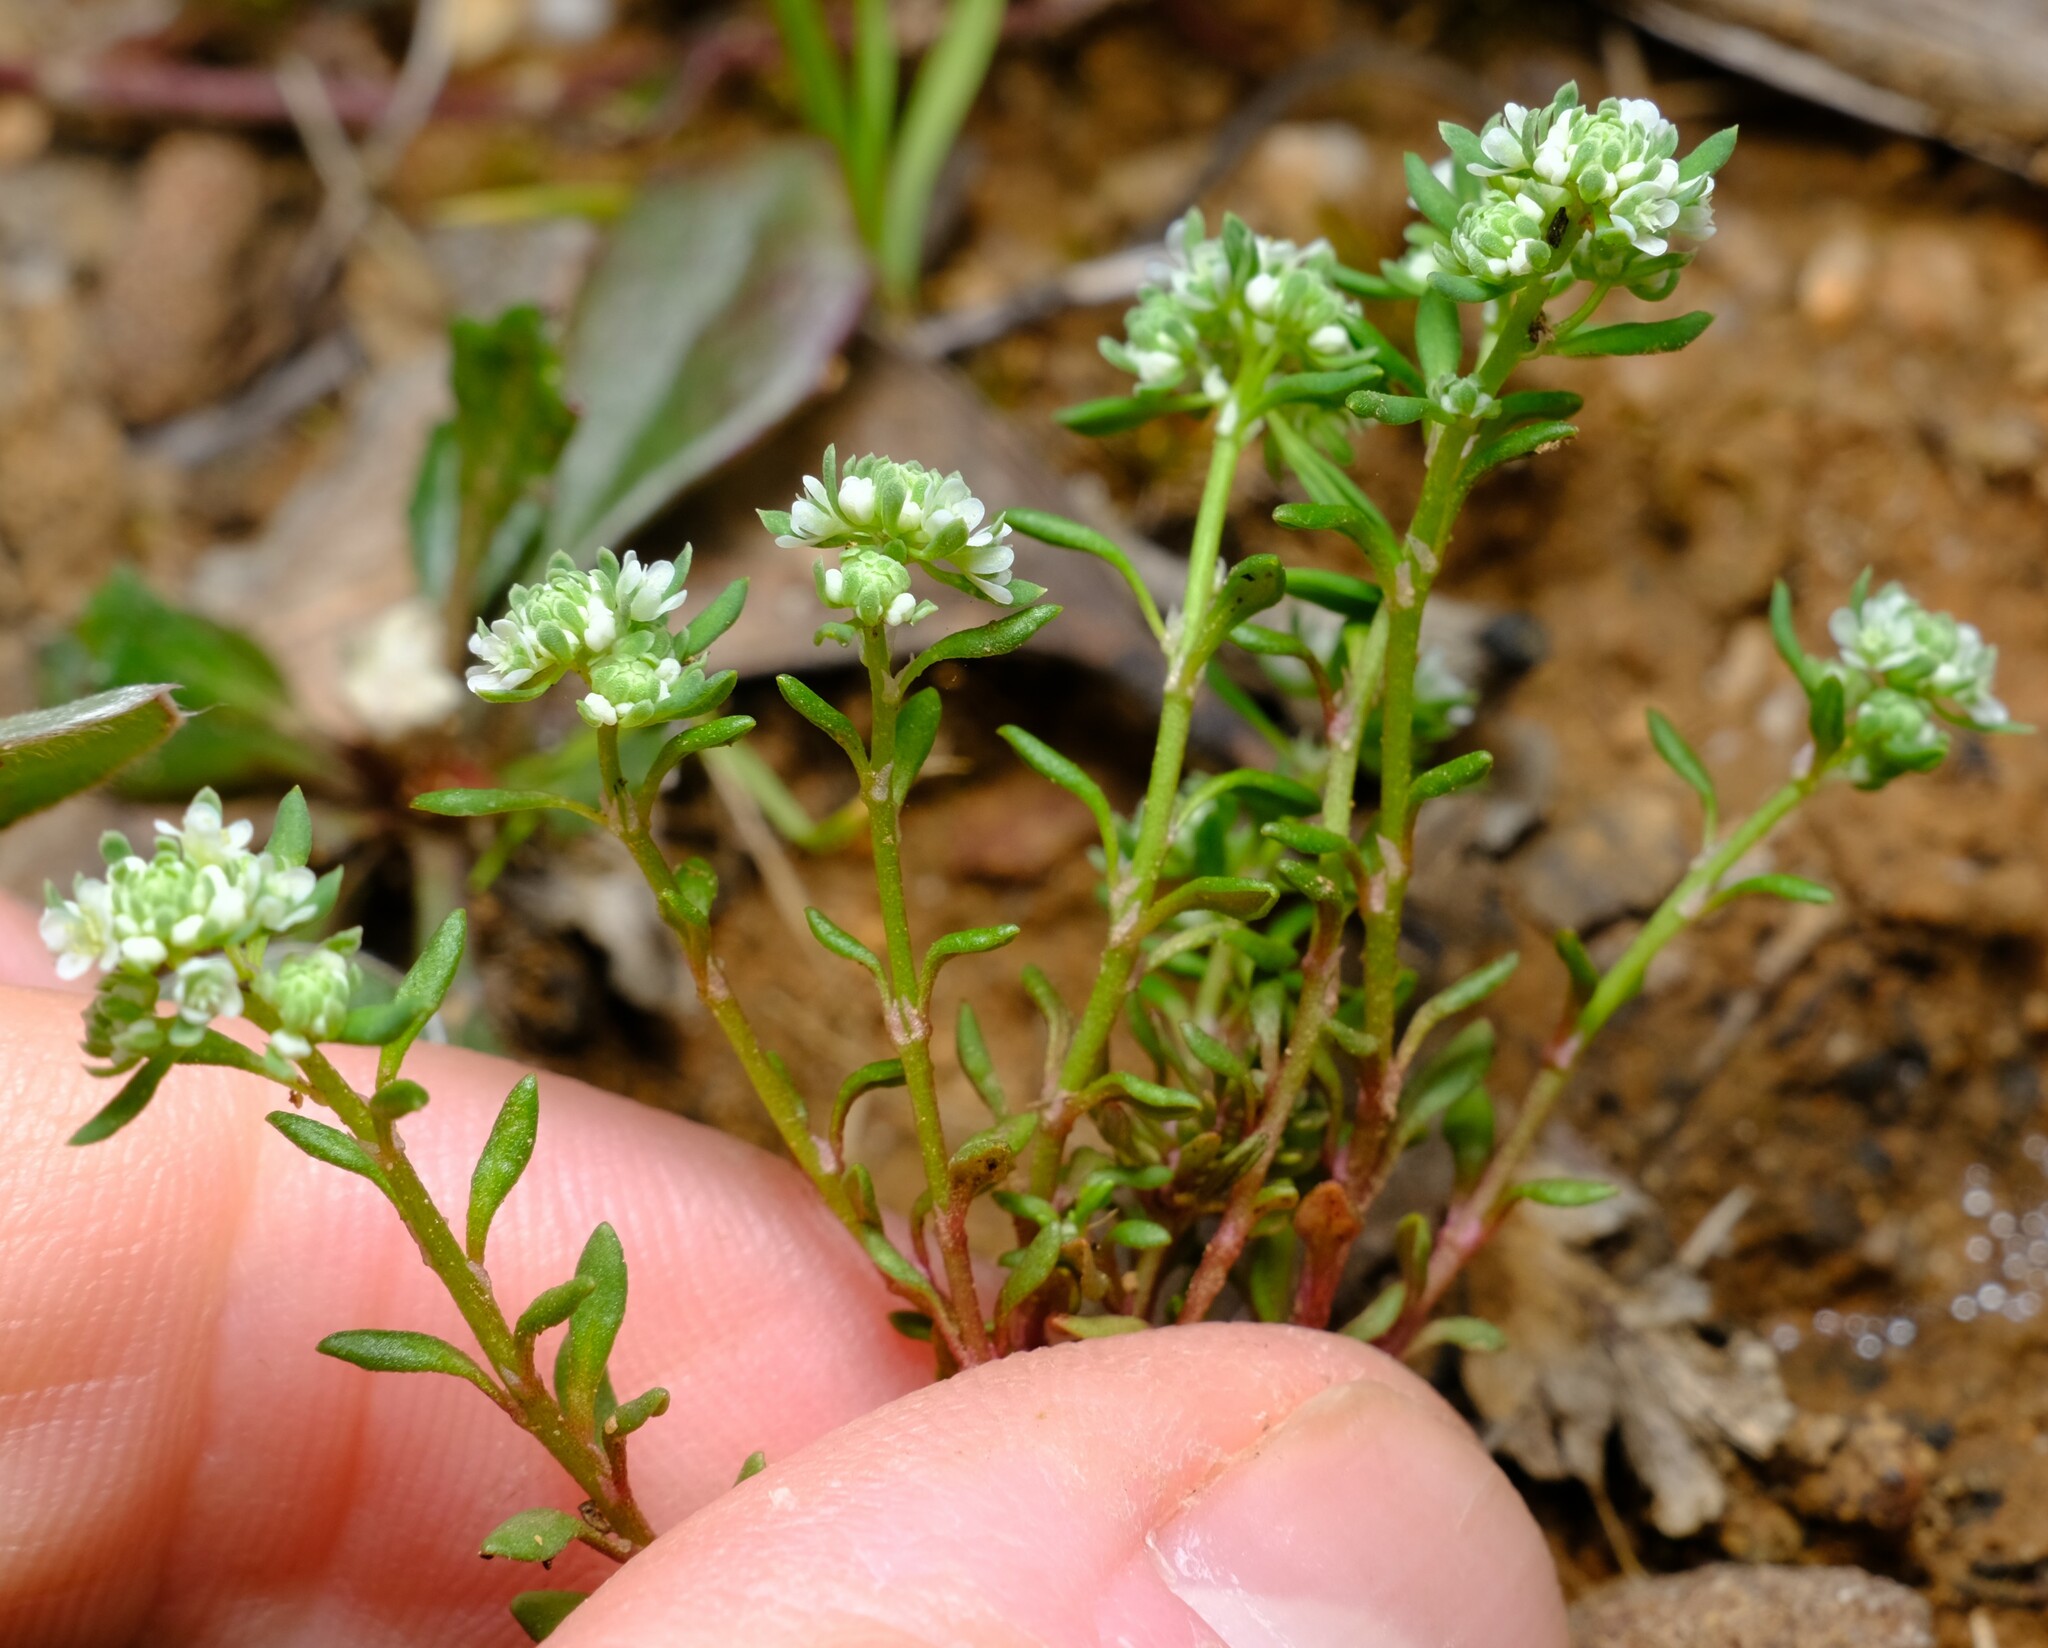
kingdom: Plantae
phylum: Tracheophyta
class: Magnoliopsida
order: Malpighiales
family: Phyllanthaceae
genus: Poranthera
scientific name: Poranthera microphylla
